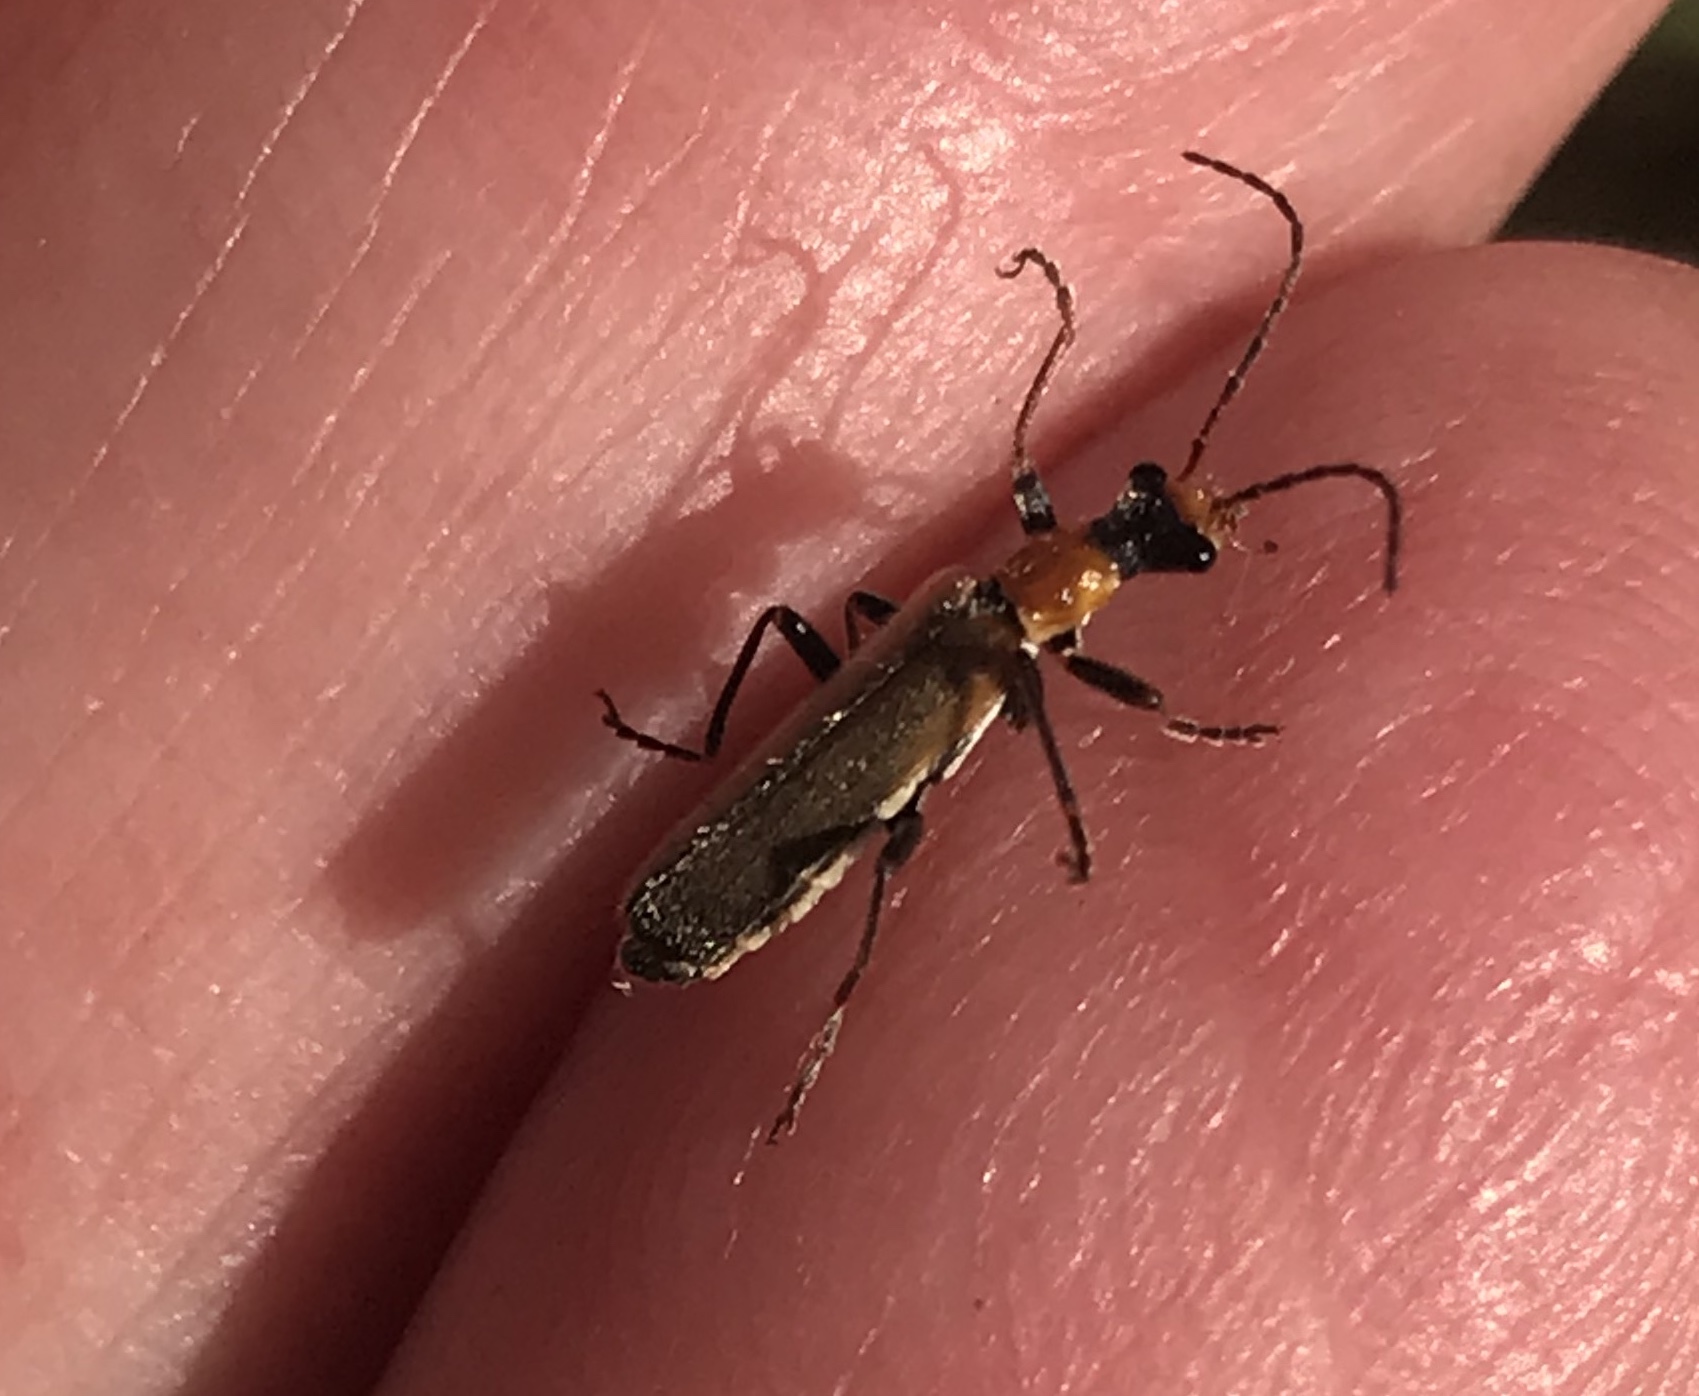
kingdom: Animalia
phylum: Arthropoda
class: Insecta
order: Coleoptera
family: Cantharidae
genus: Dichelotarsus
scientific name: Dichelotarsus cavicollis
